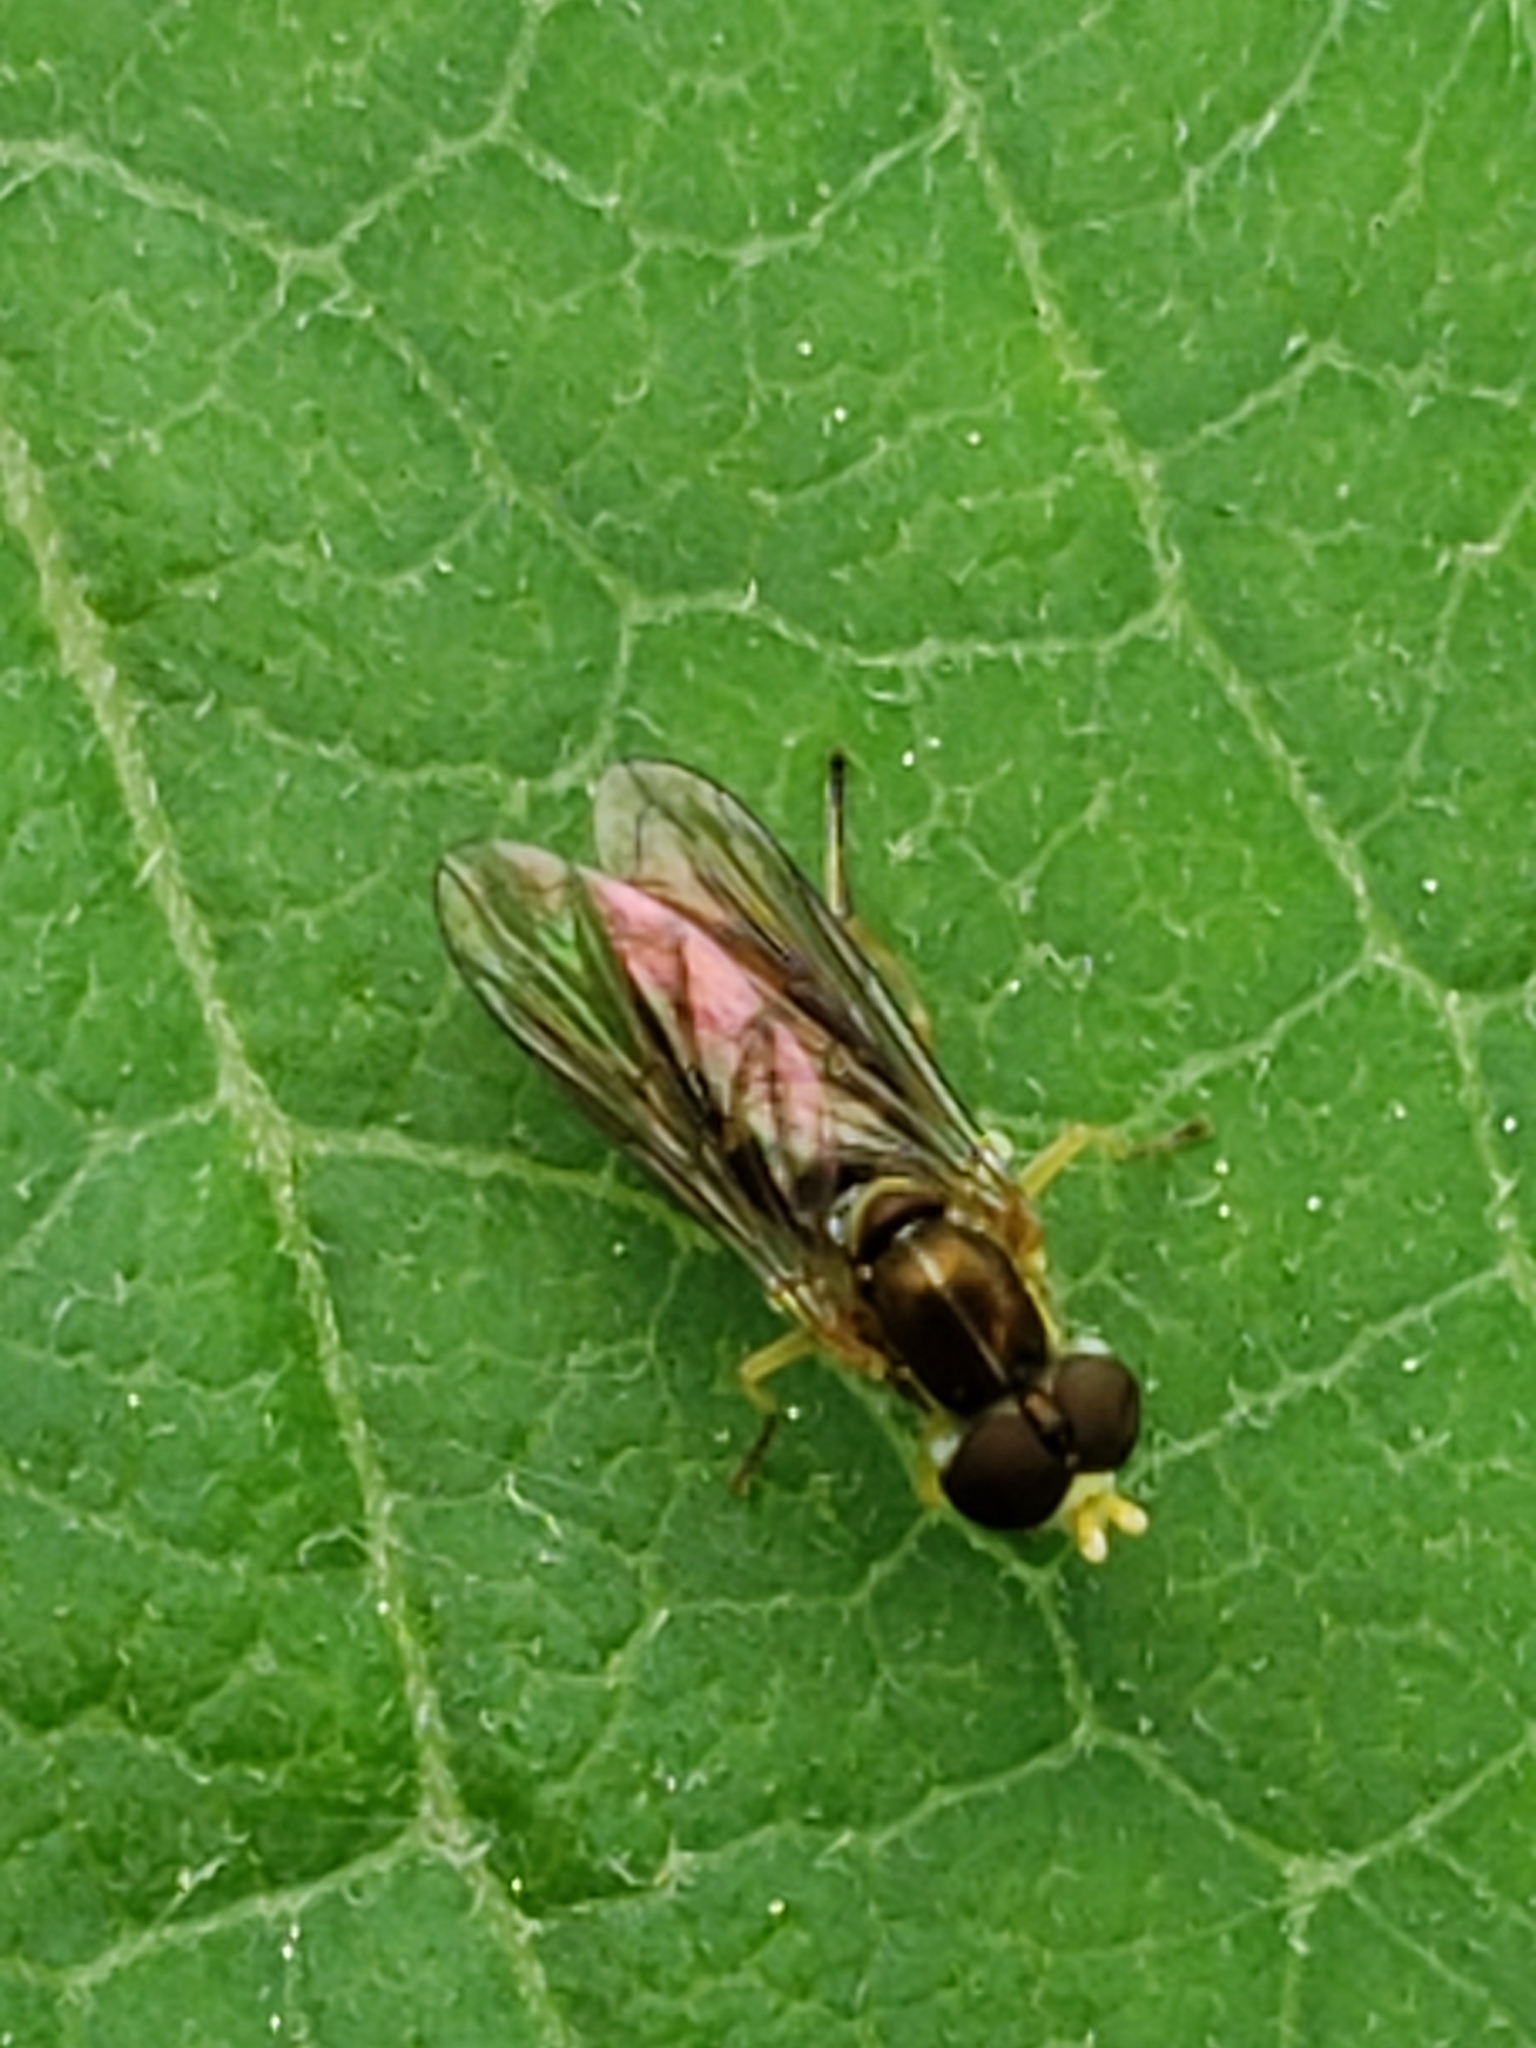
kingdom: Animalia
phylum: Arthropoda
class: Insecta
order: Diptera
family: Syrphidae
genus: Toxomerus
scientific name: Toxomerus marginatus
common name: Syrphid fly
